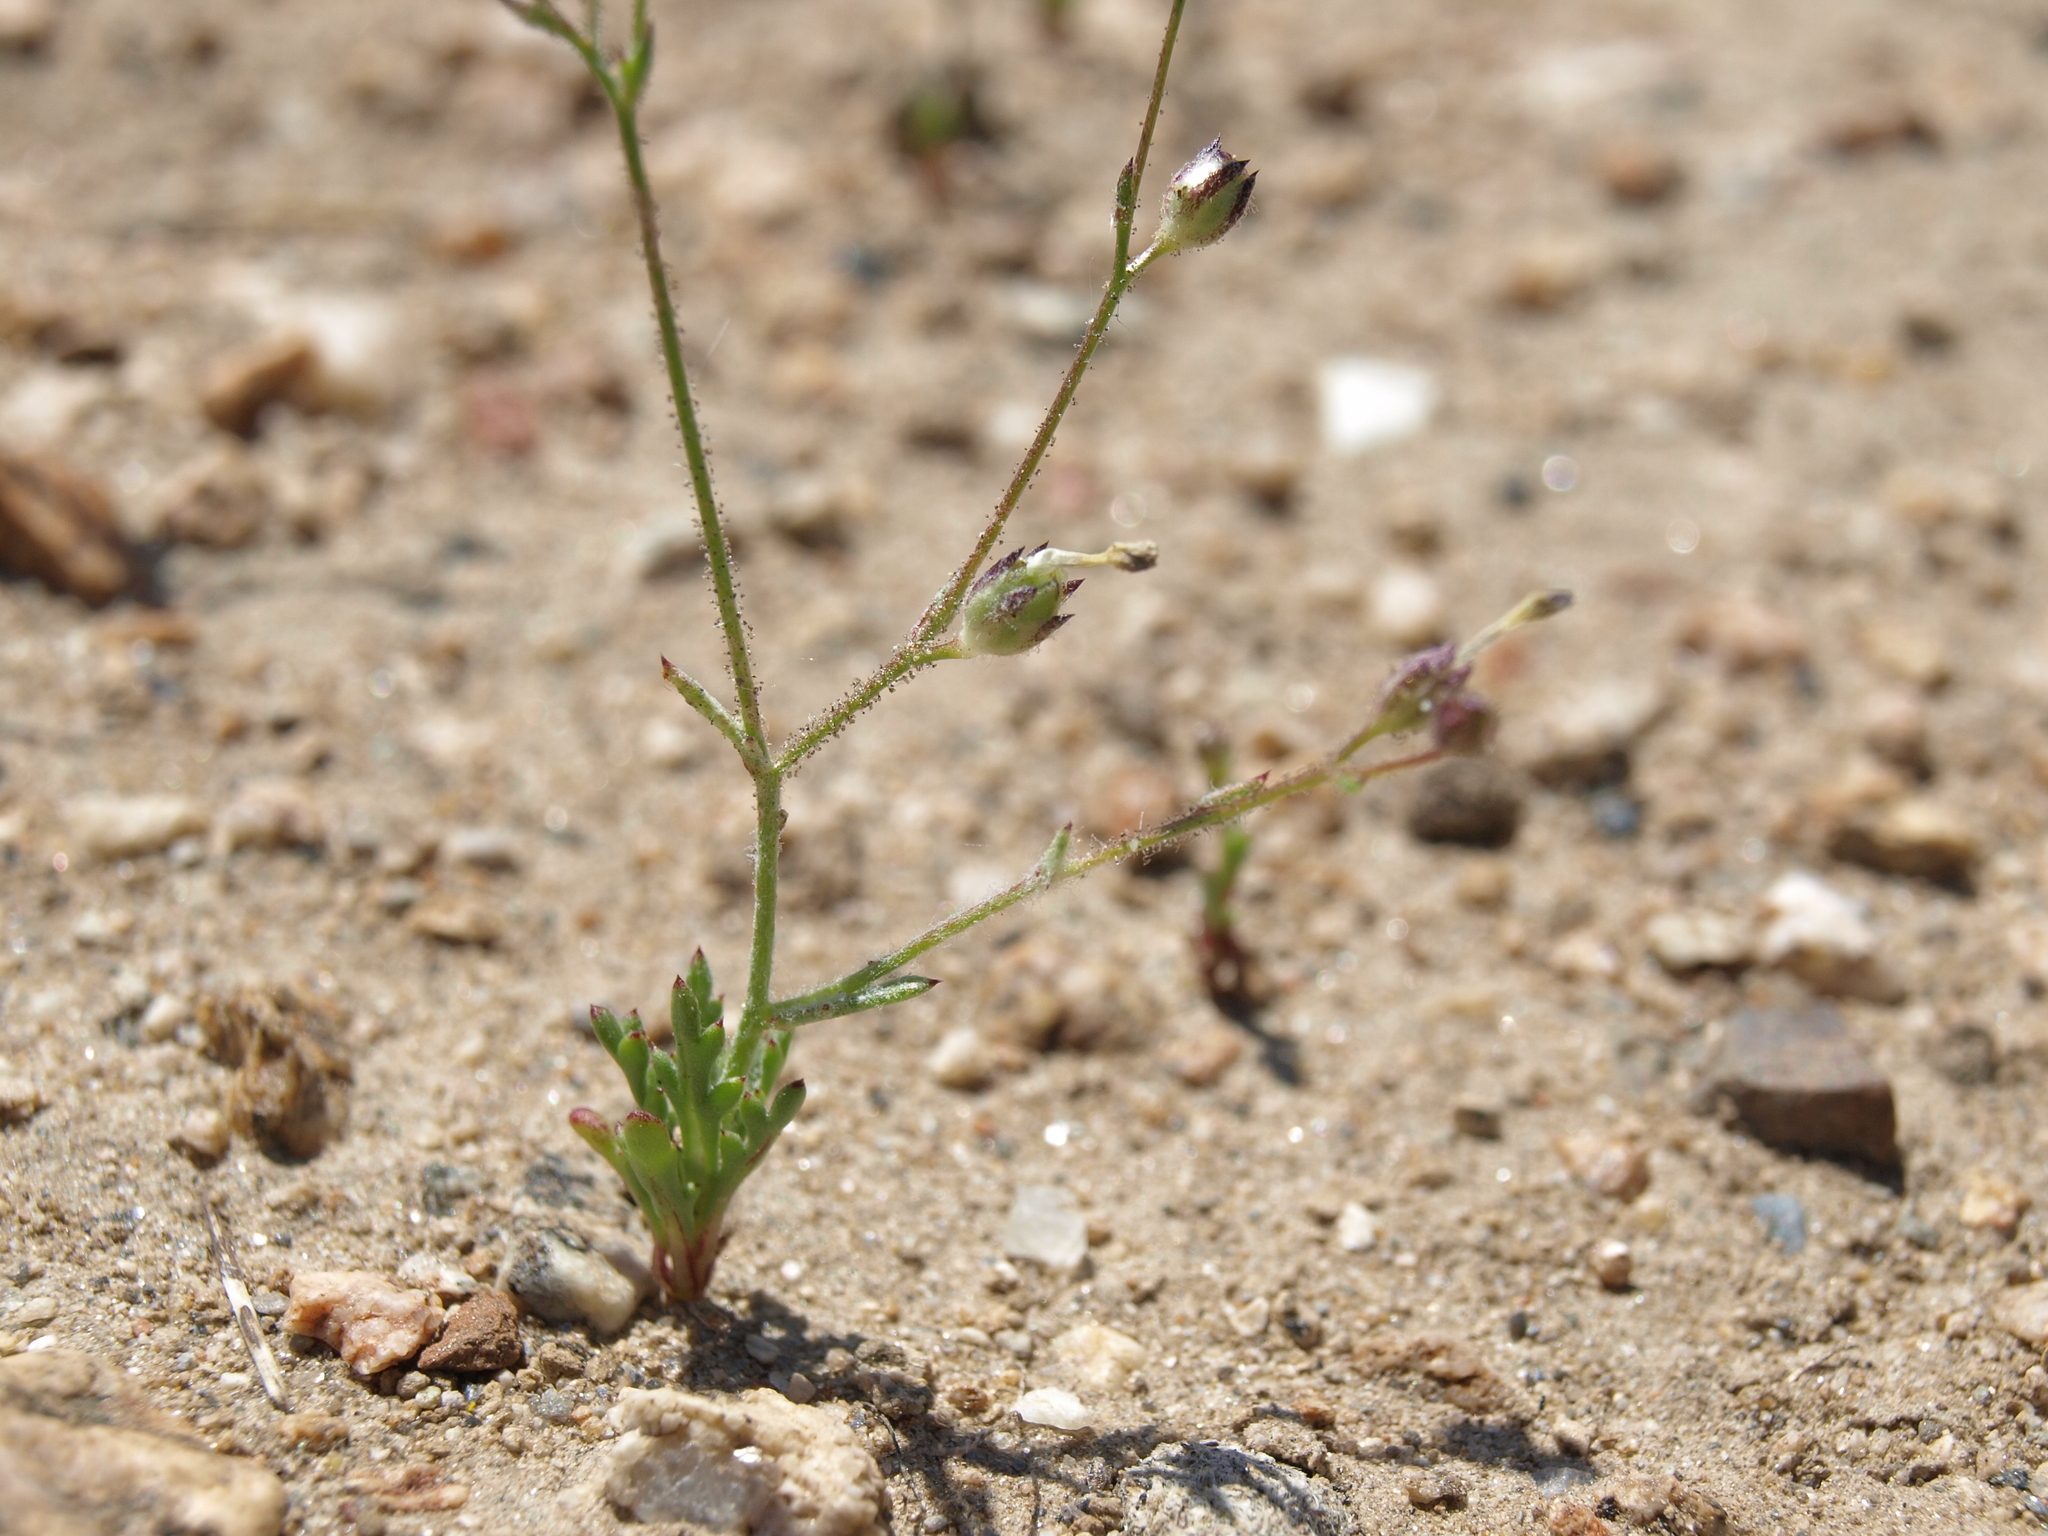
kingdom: Plantae
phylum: Tracheophyta
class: Magnoliopsida
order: Ericales
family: Polemoniaceae
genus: Gilia
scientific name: Gilia transmontana
